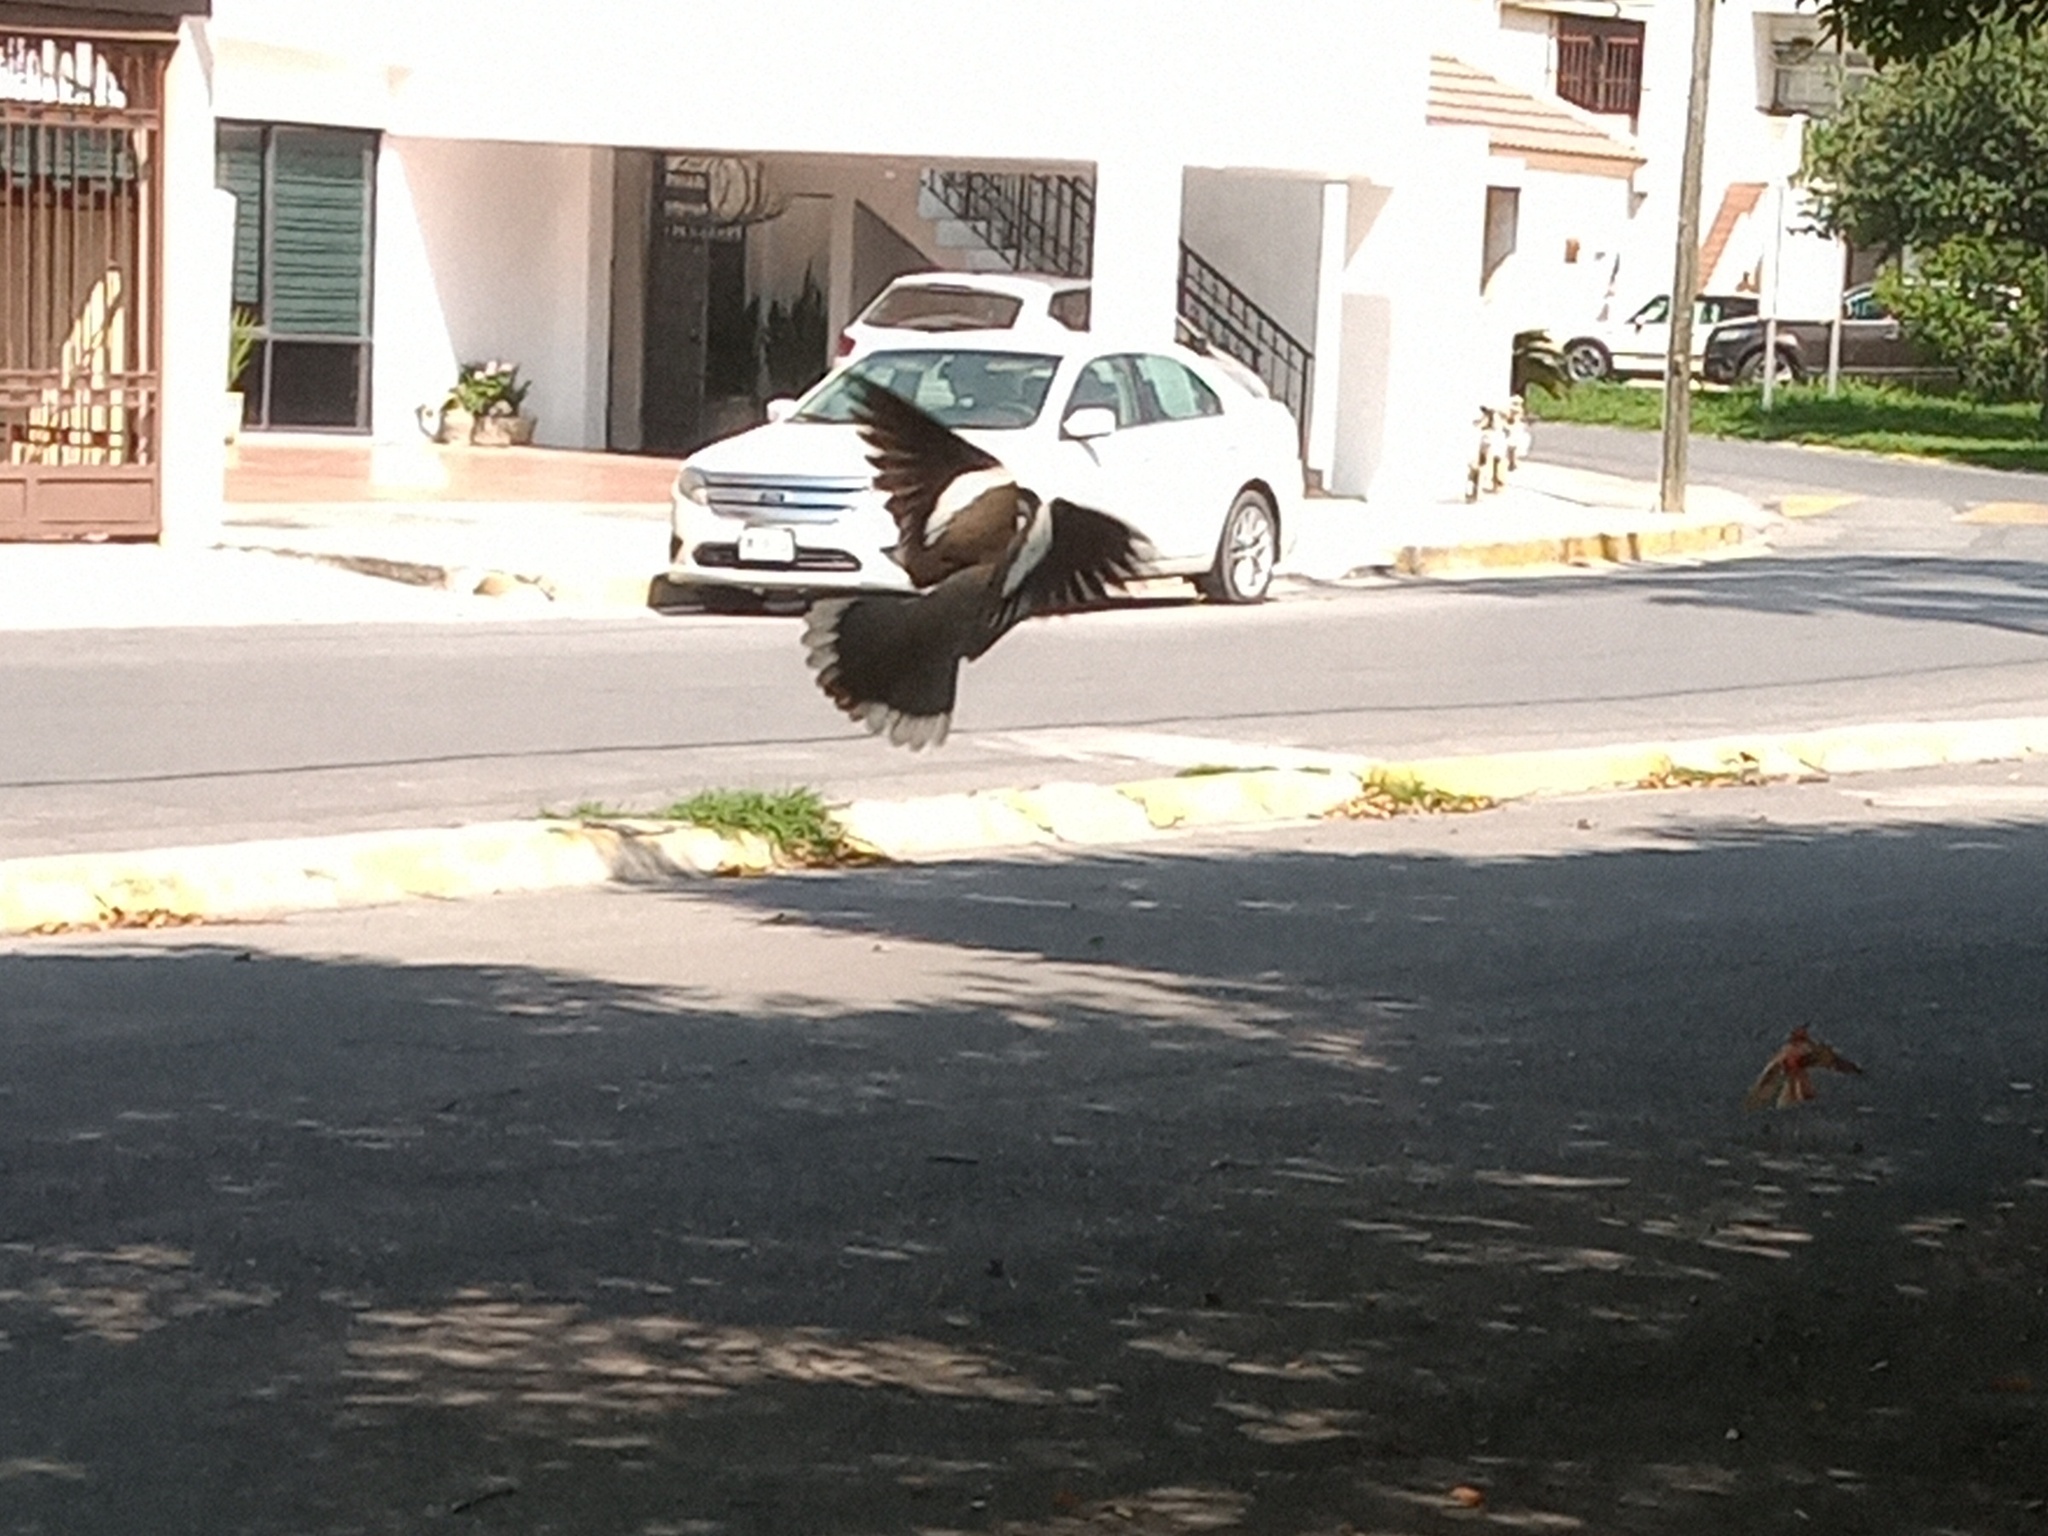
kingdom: Animalia
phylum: Chordata
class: Aves
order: Columbiformes
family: Columbidae
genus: Zenaida
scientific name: Zenaida asiatica
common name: White-winged dove
